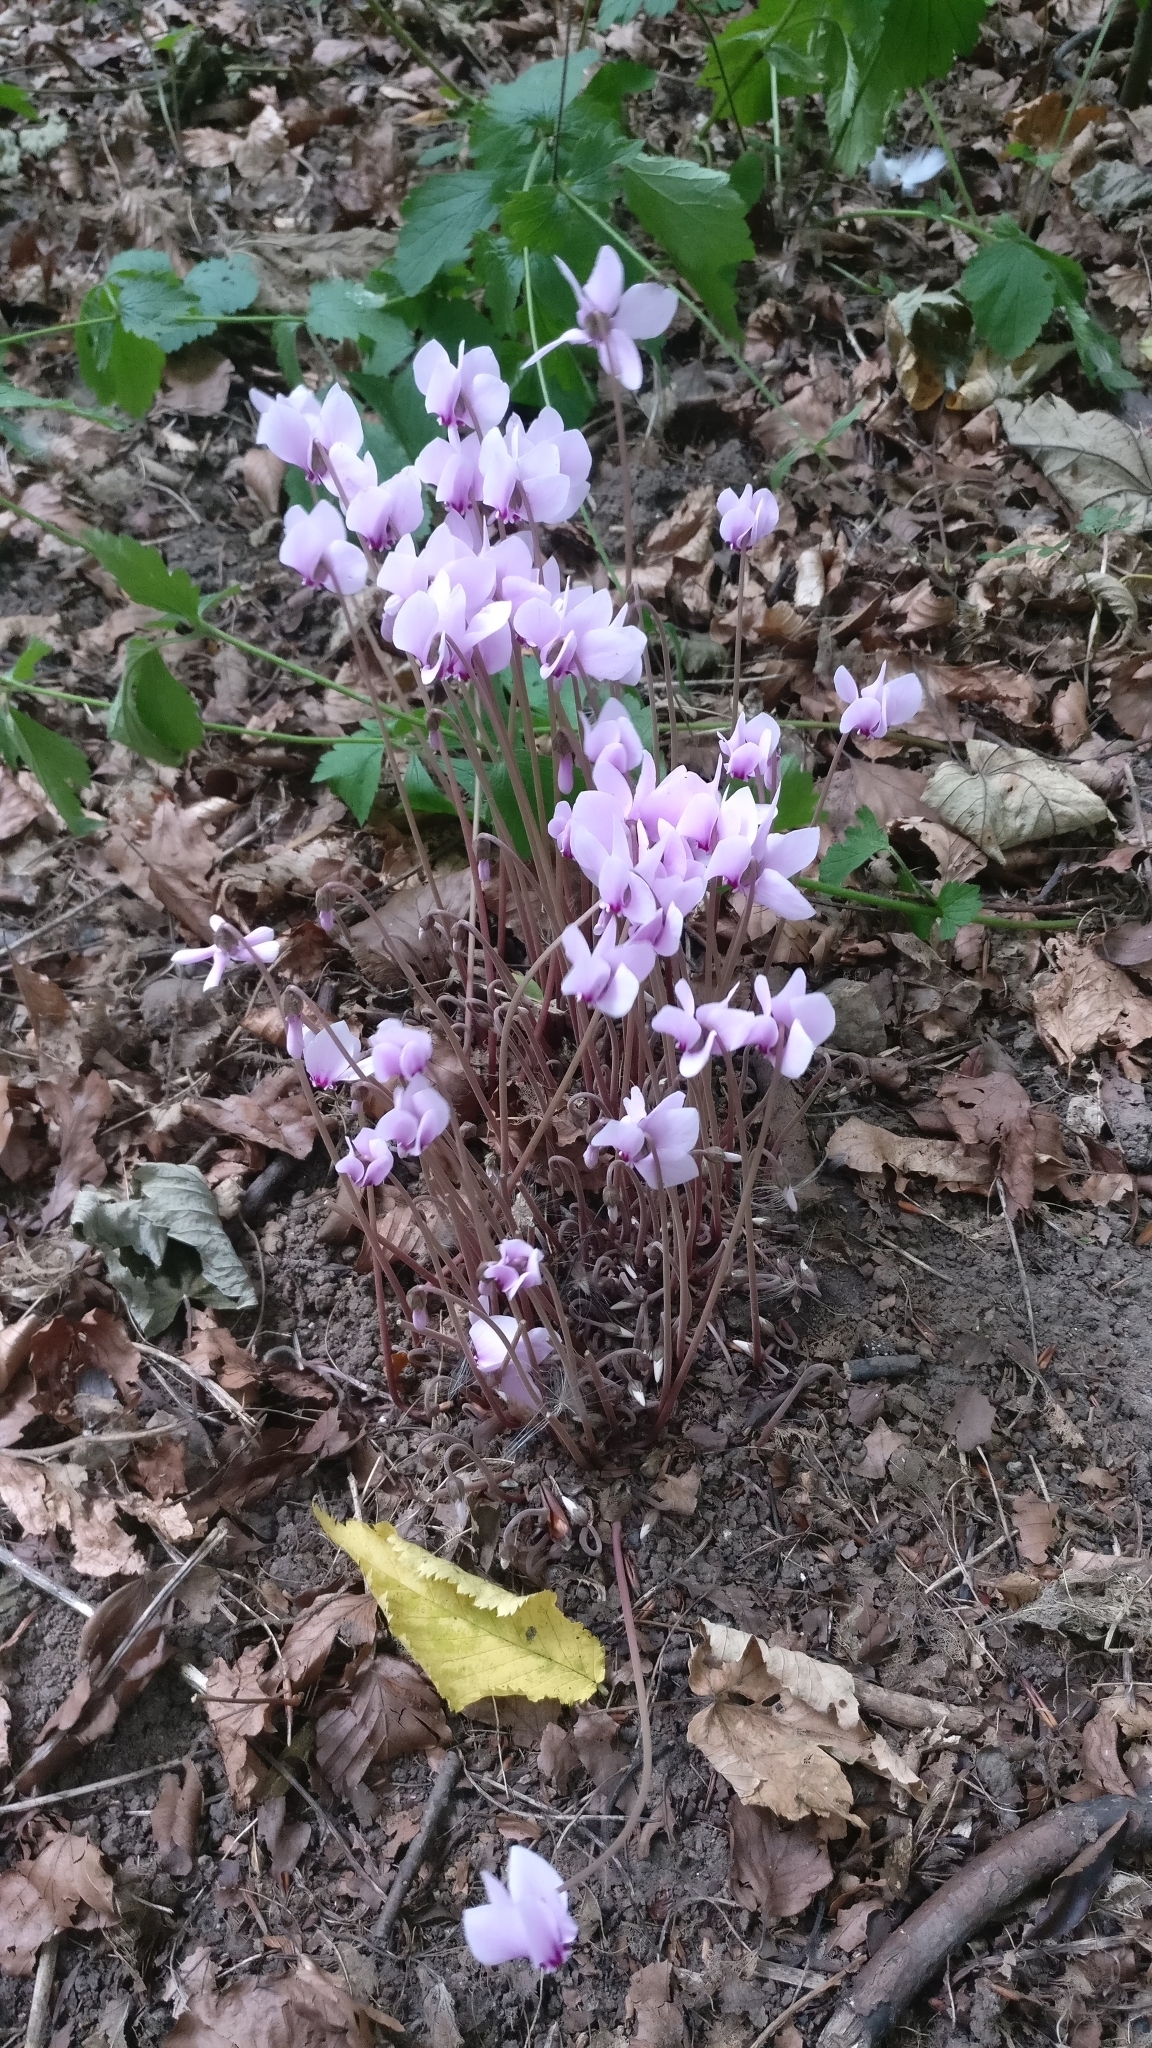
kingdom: Plantae
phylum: Tracheophyta
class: Magnoliopsida
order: Ericales
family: Primulaceae
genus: Cyclamen
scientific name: Cyclamen hederifolium
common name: Sowbread
